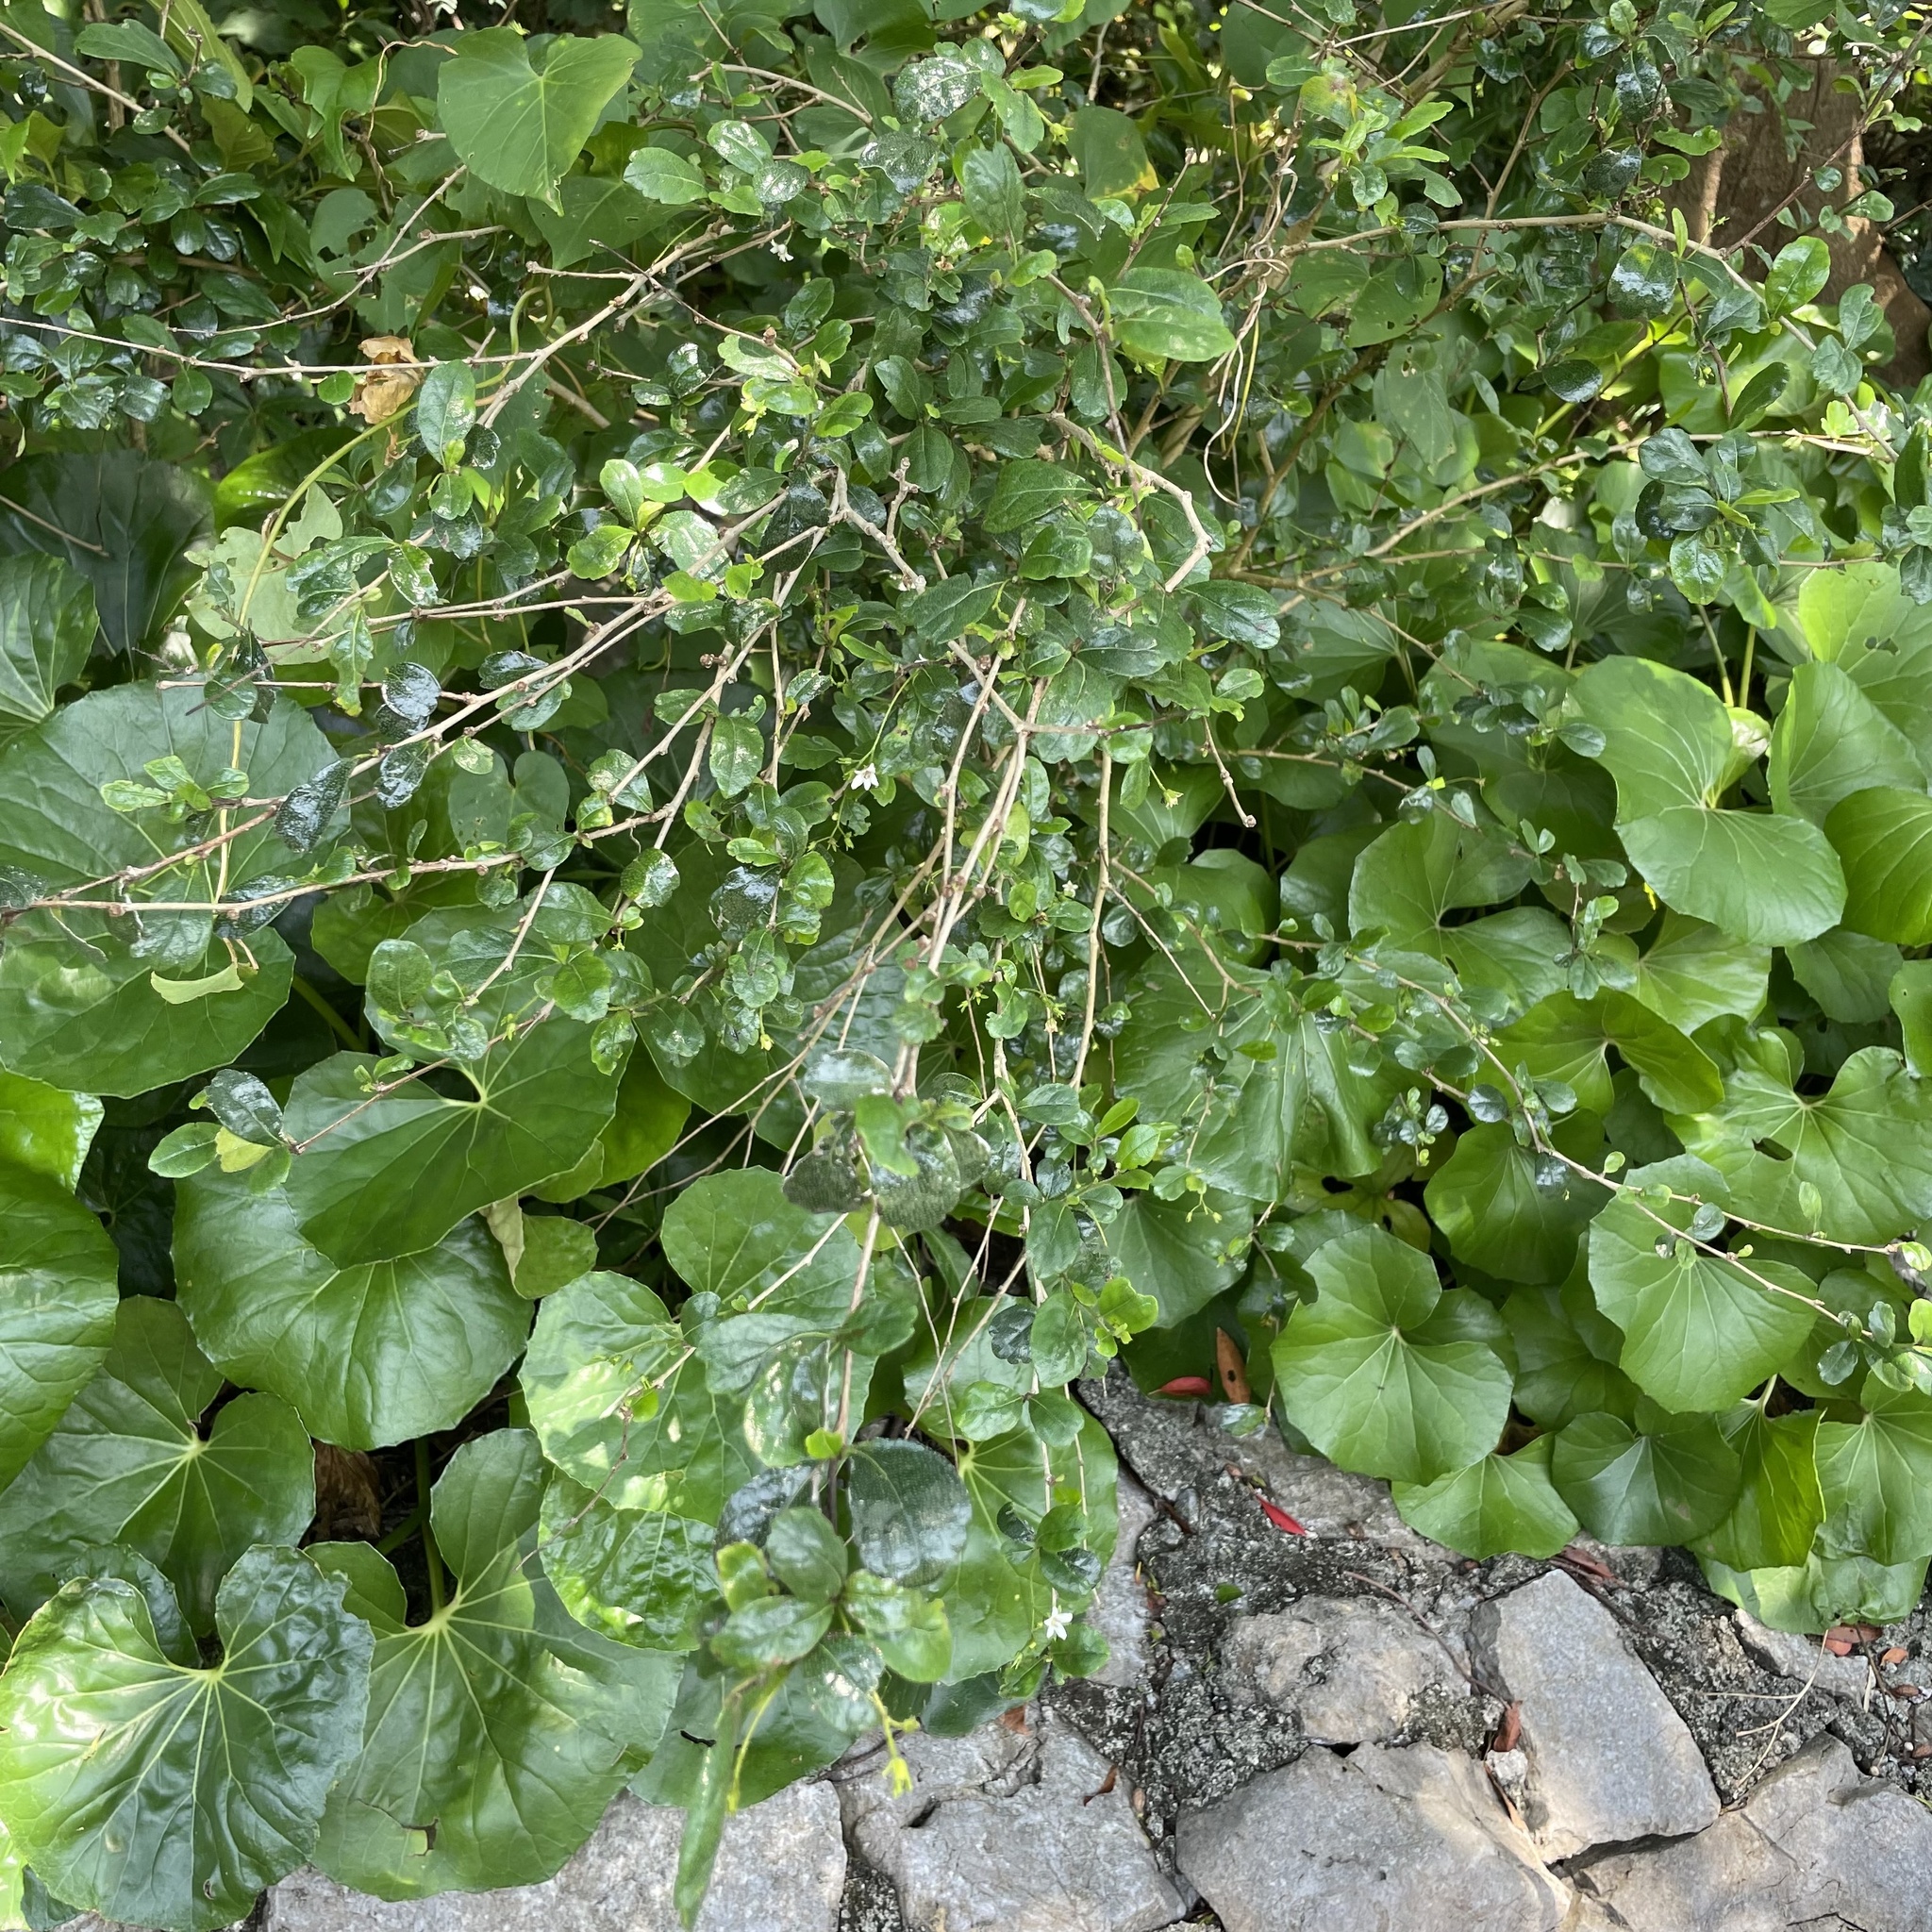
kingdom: Plantae
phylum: Tracheophyta
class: Magnoliopsida
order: Boraginales
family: Ehretiaceae
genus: Ehretia
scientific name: Ehretia microphylla
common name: Fukien-tea
